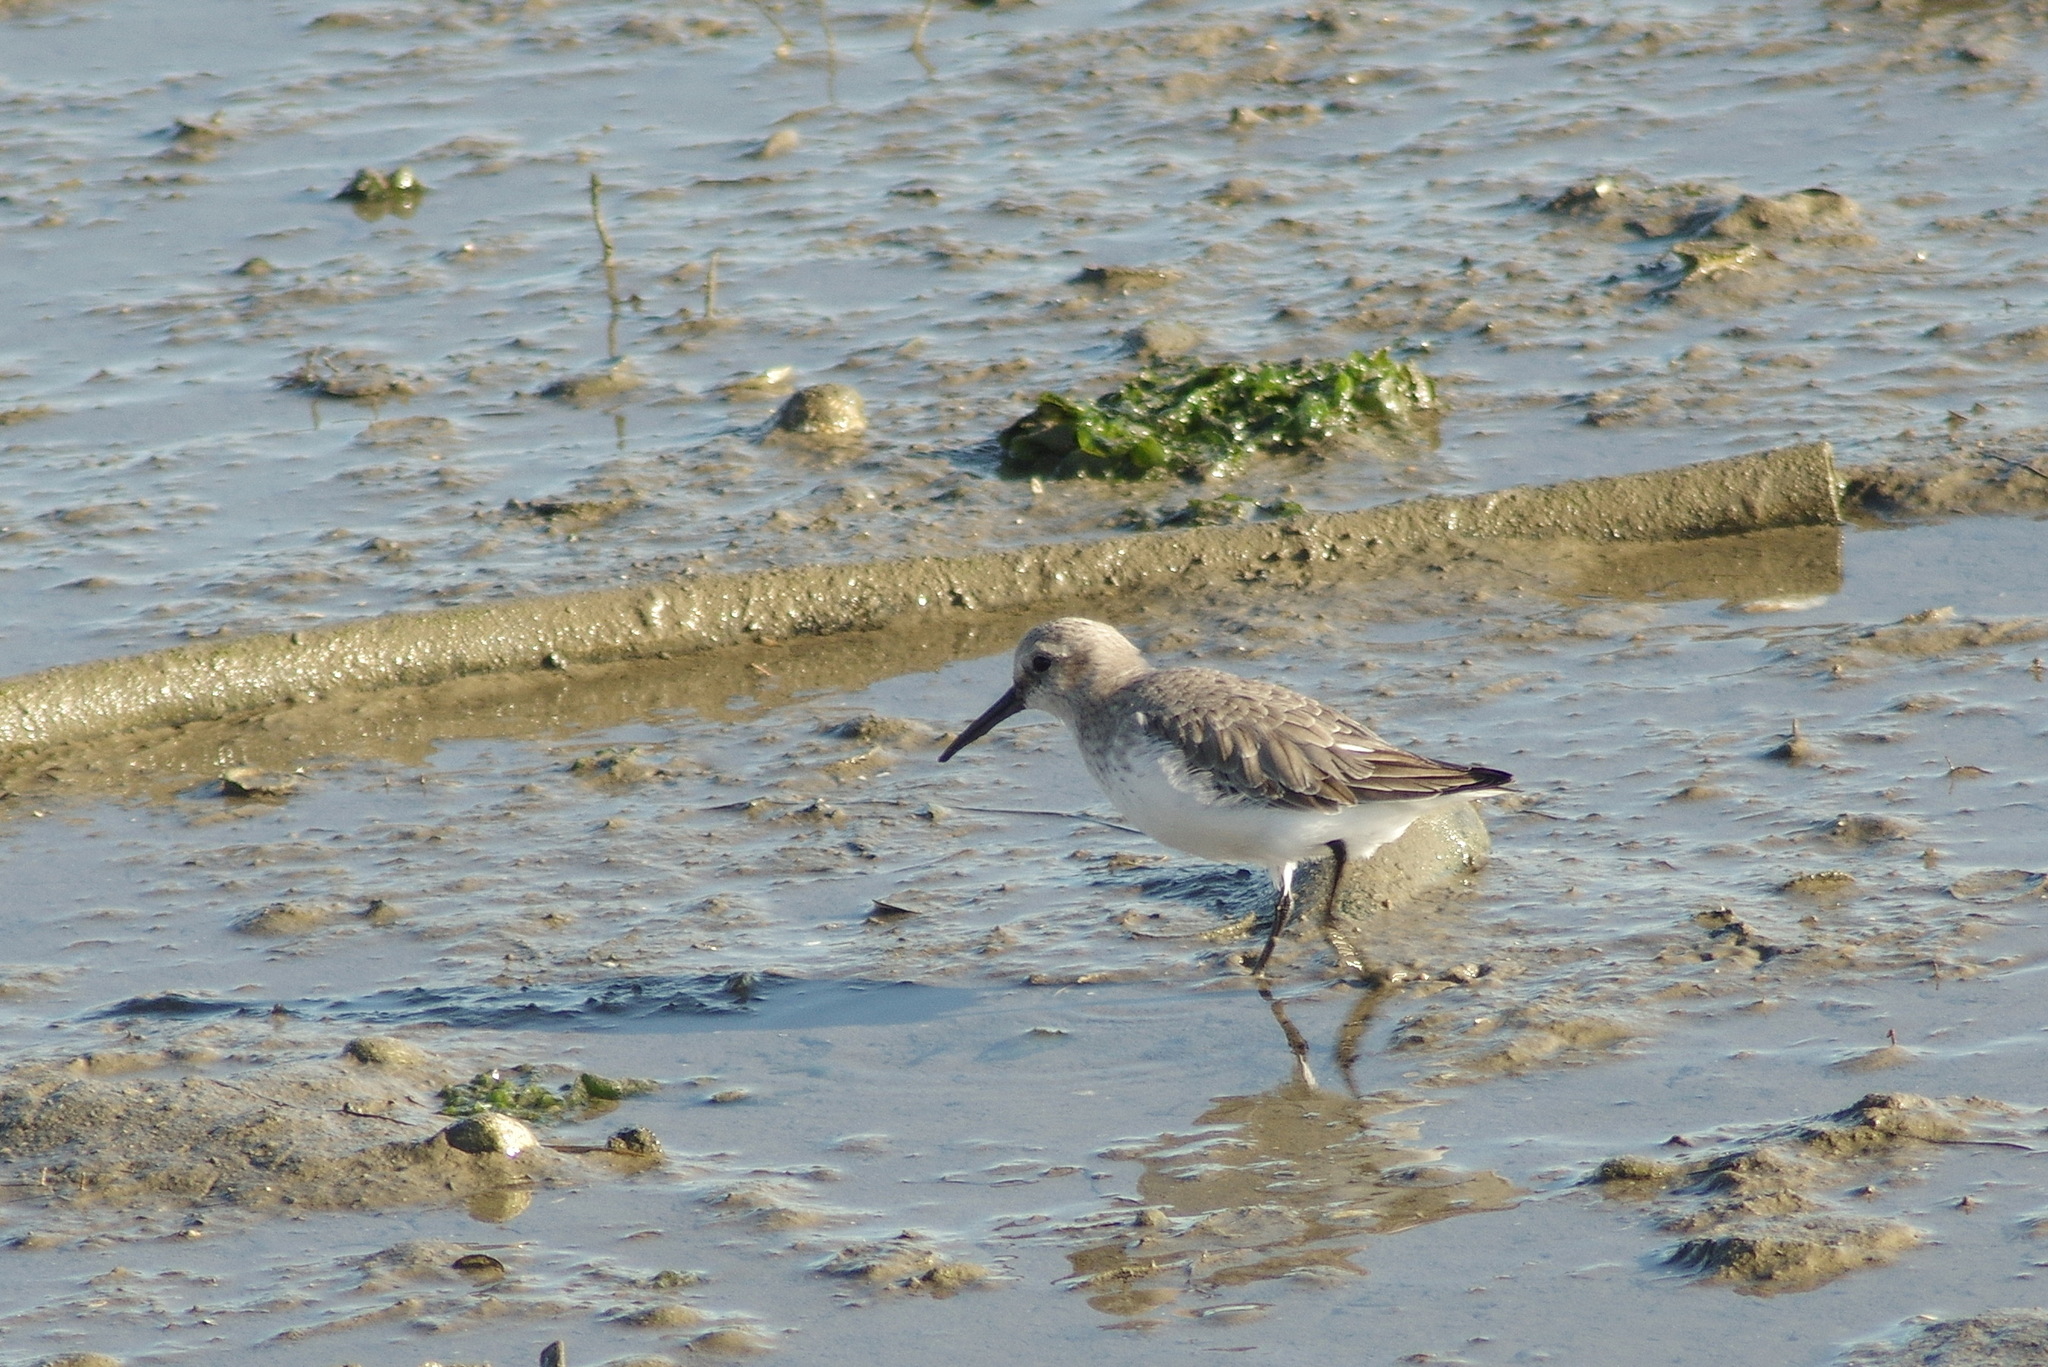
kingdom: Animalia
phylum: Chordata
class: Aves
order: Charadriiformes
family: Scolopacidae
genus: Calidris
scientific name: Calidris alpina
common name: Dunlin
